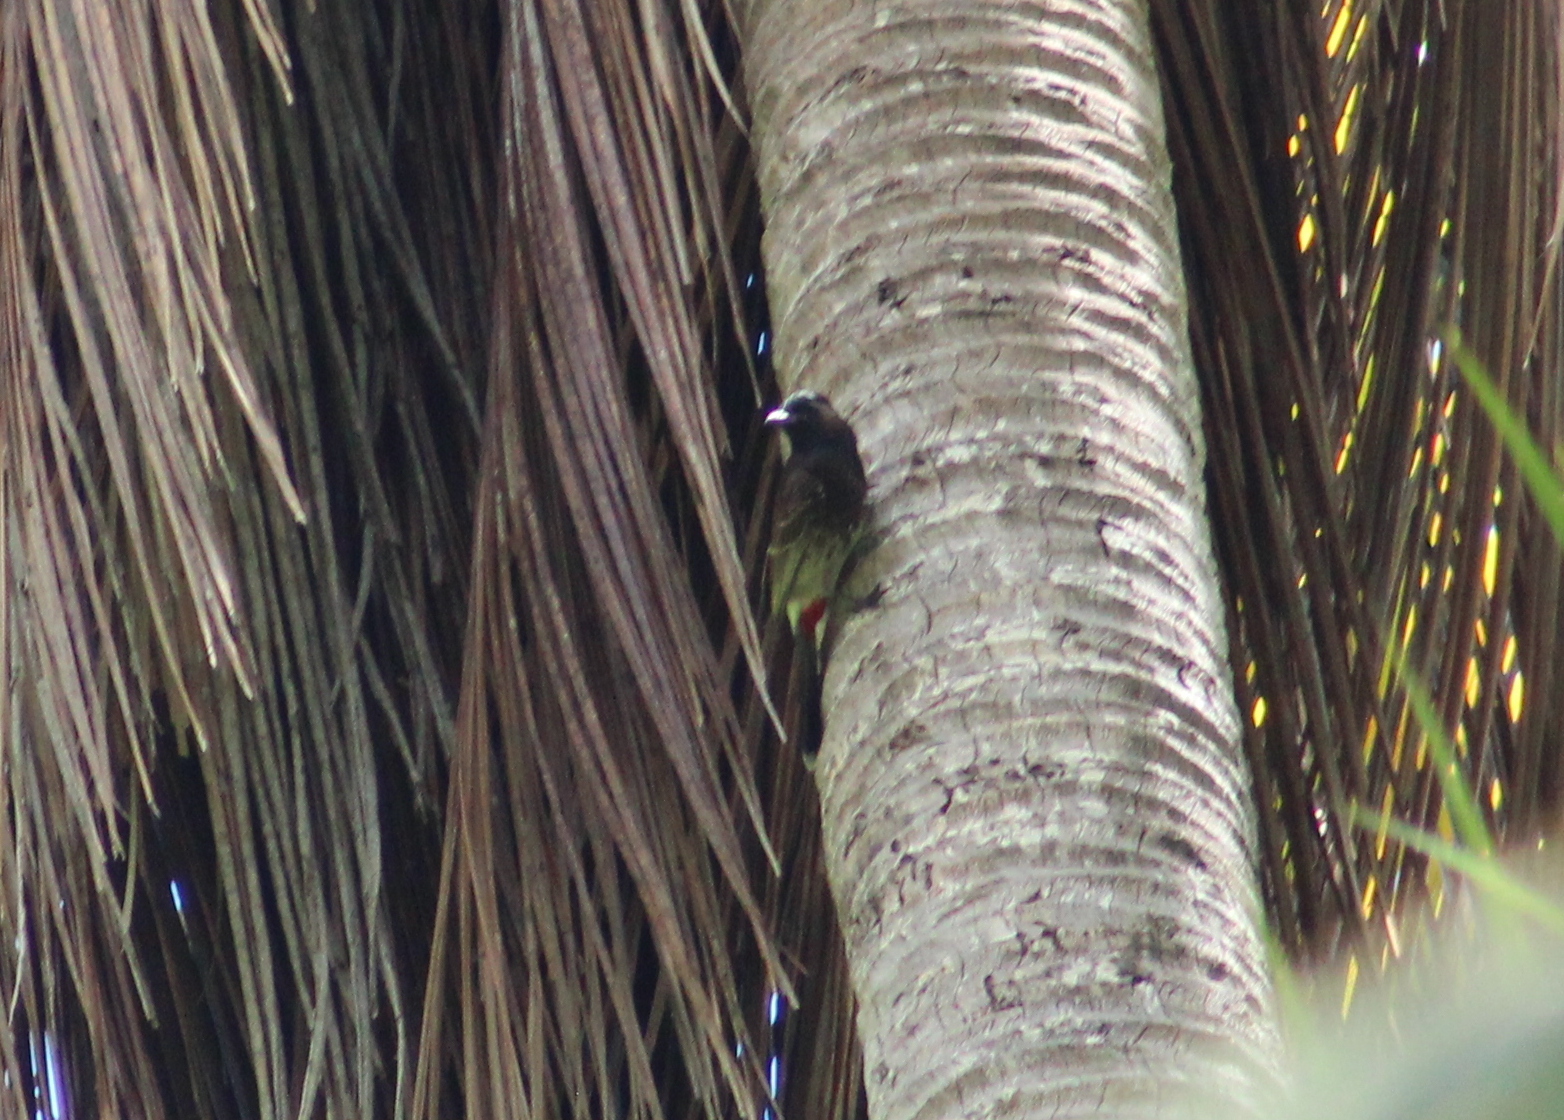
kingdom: Animalia
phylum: Chordata
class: Aves
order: Passeriformes
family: Pycnonotidae
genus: Pycnonotus
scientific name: Pycnonotus cafer
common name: Red-vented bulbul
